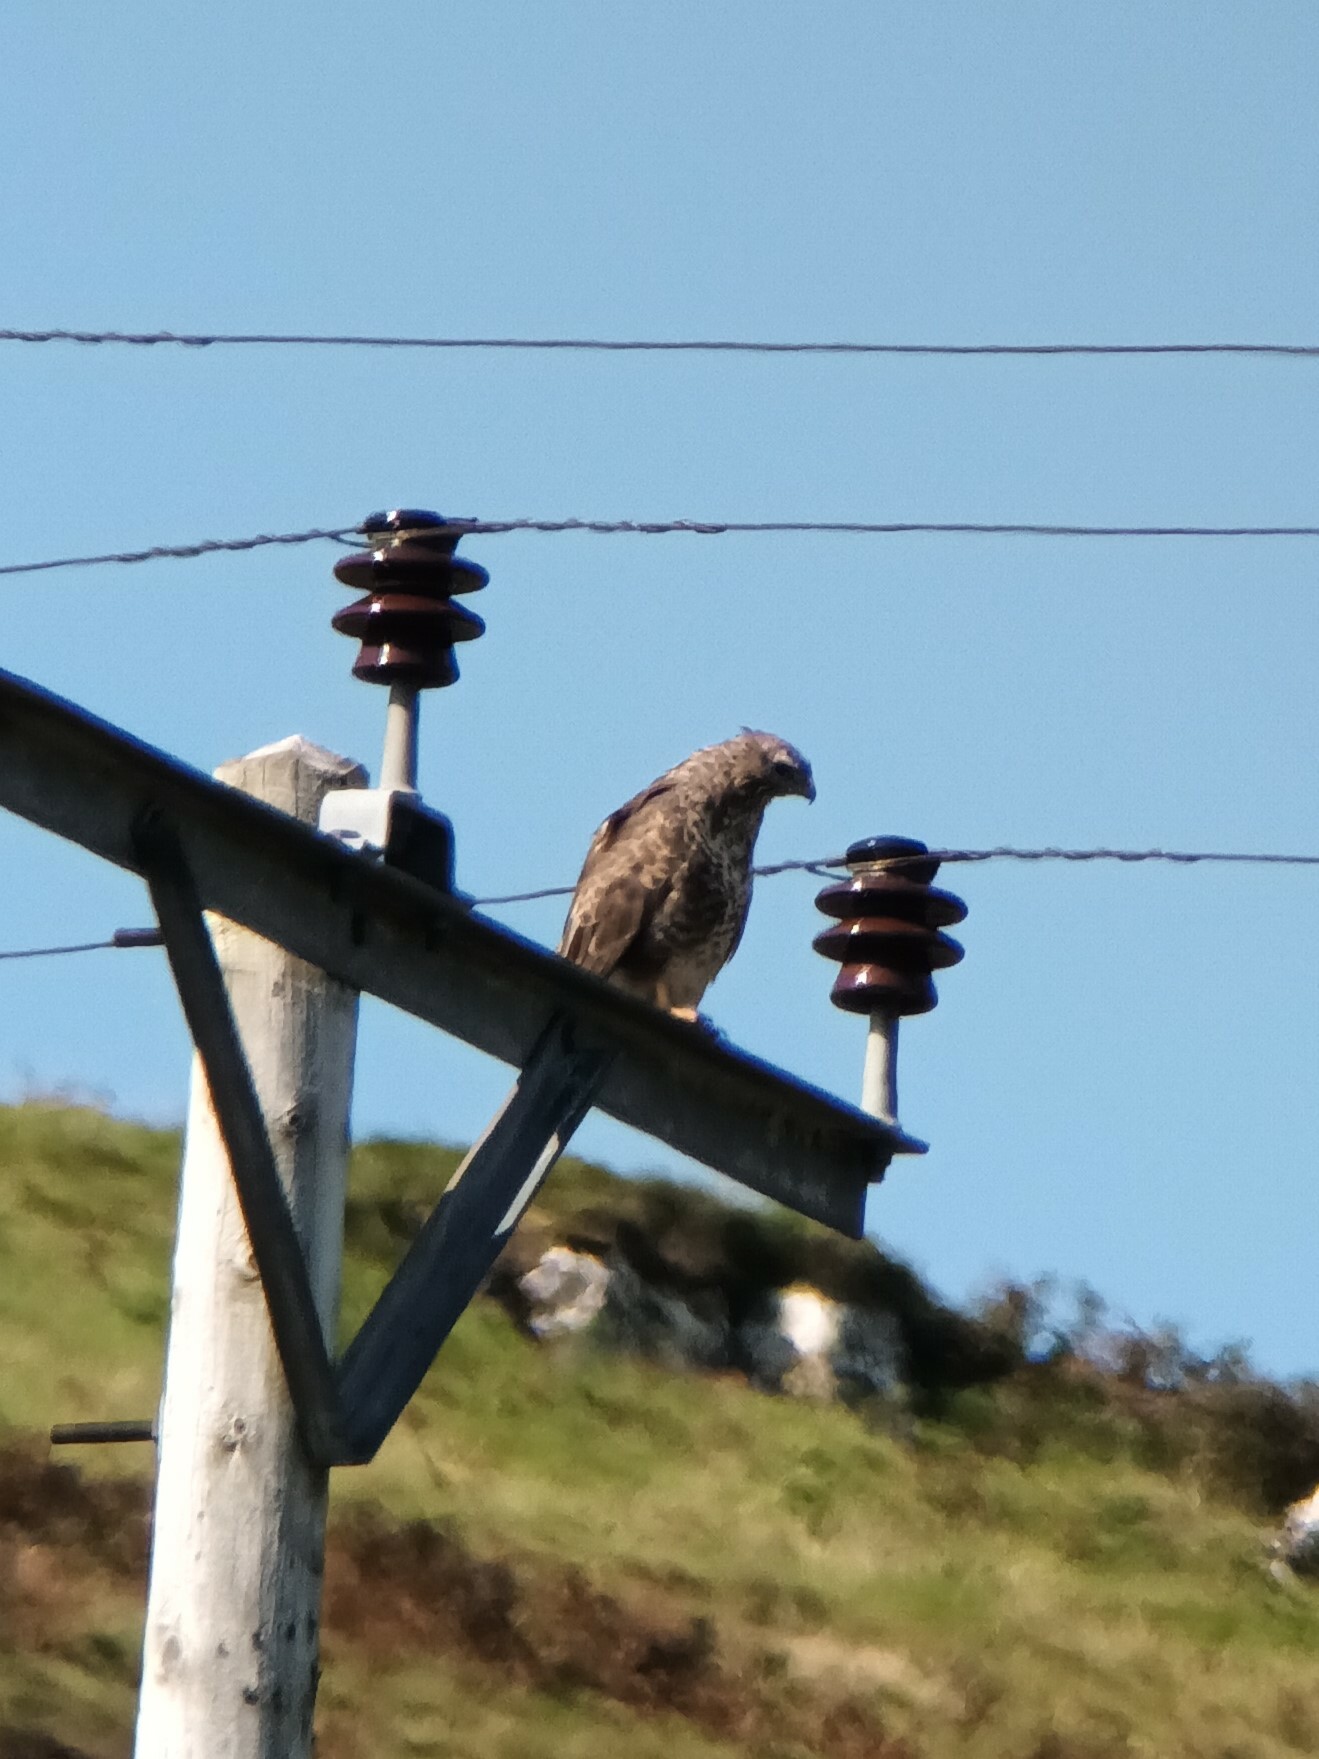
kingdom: Animalia
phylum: Chordata
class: Aves
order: Accipitriformes
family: Accipitridae
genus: Buteo
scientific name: Buteo buteo
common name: Common buzzard
